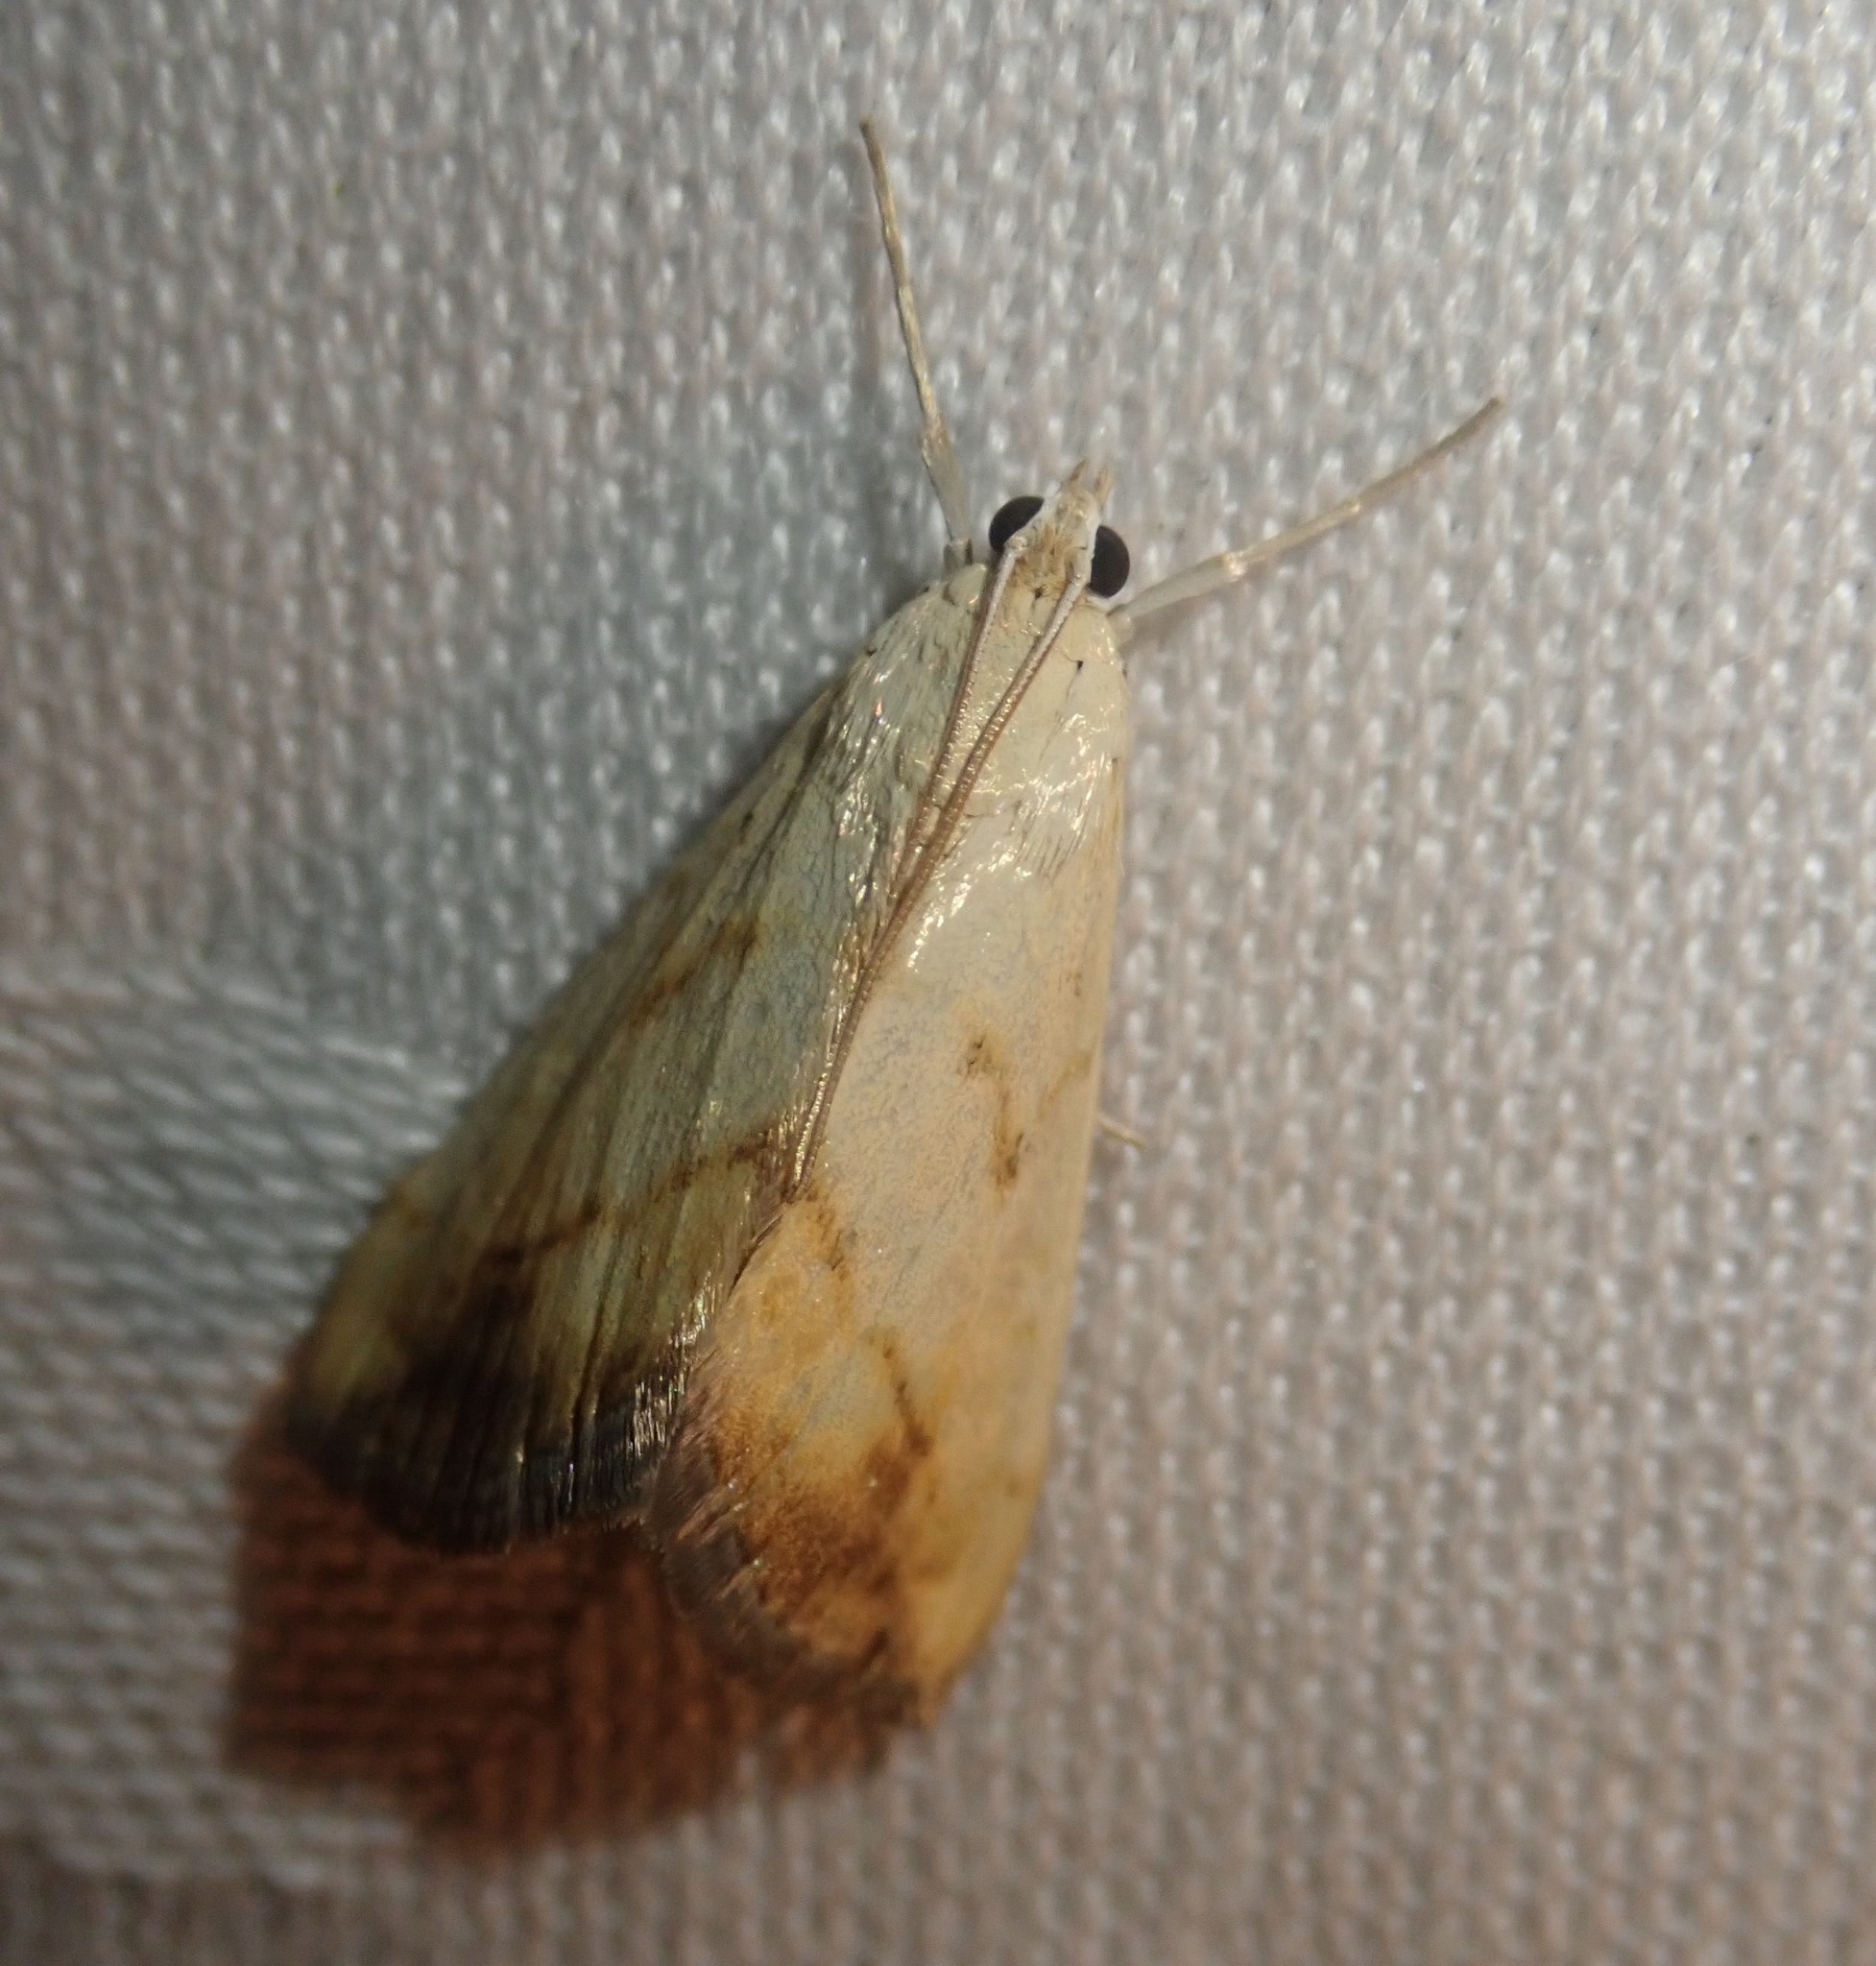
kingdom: Animalia
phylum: Arthropoda
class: Insecta
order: Lepidoptera
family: Crambidae
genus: Evergestis
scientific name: Evergestis extimalis
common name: Marbled yellow pearl
